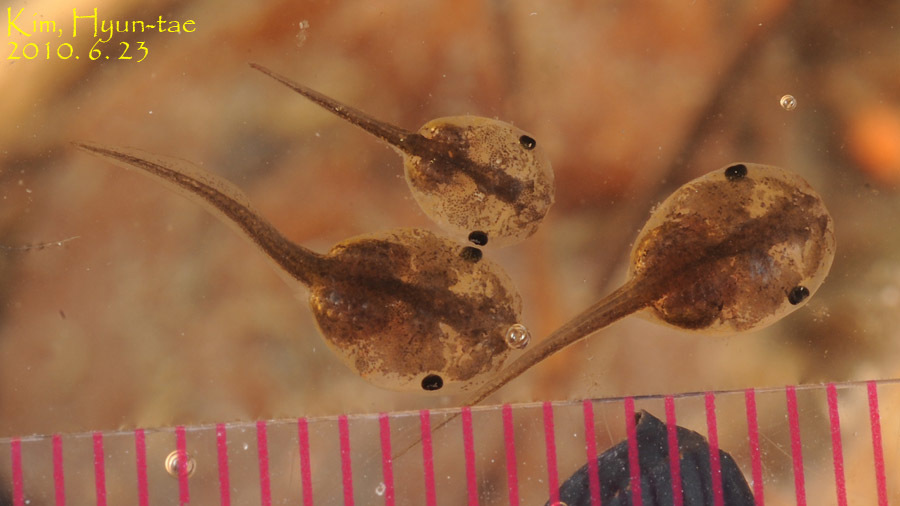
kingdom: Animalia
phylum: Chordata
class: Amphibia
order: Anura
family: Microhylidae
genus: Kaloula
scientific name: Kaloula borealis
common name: Boreal digging frog
